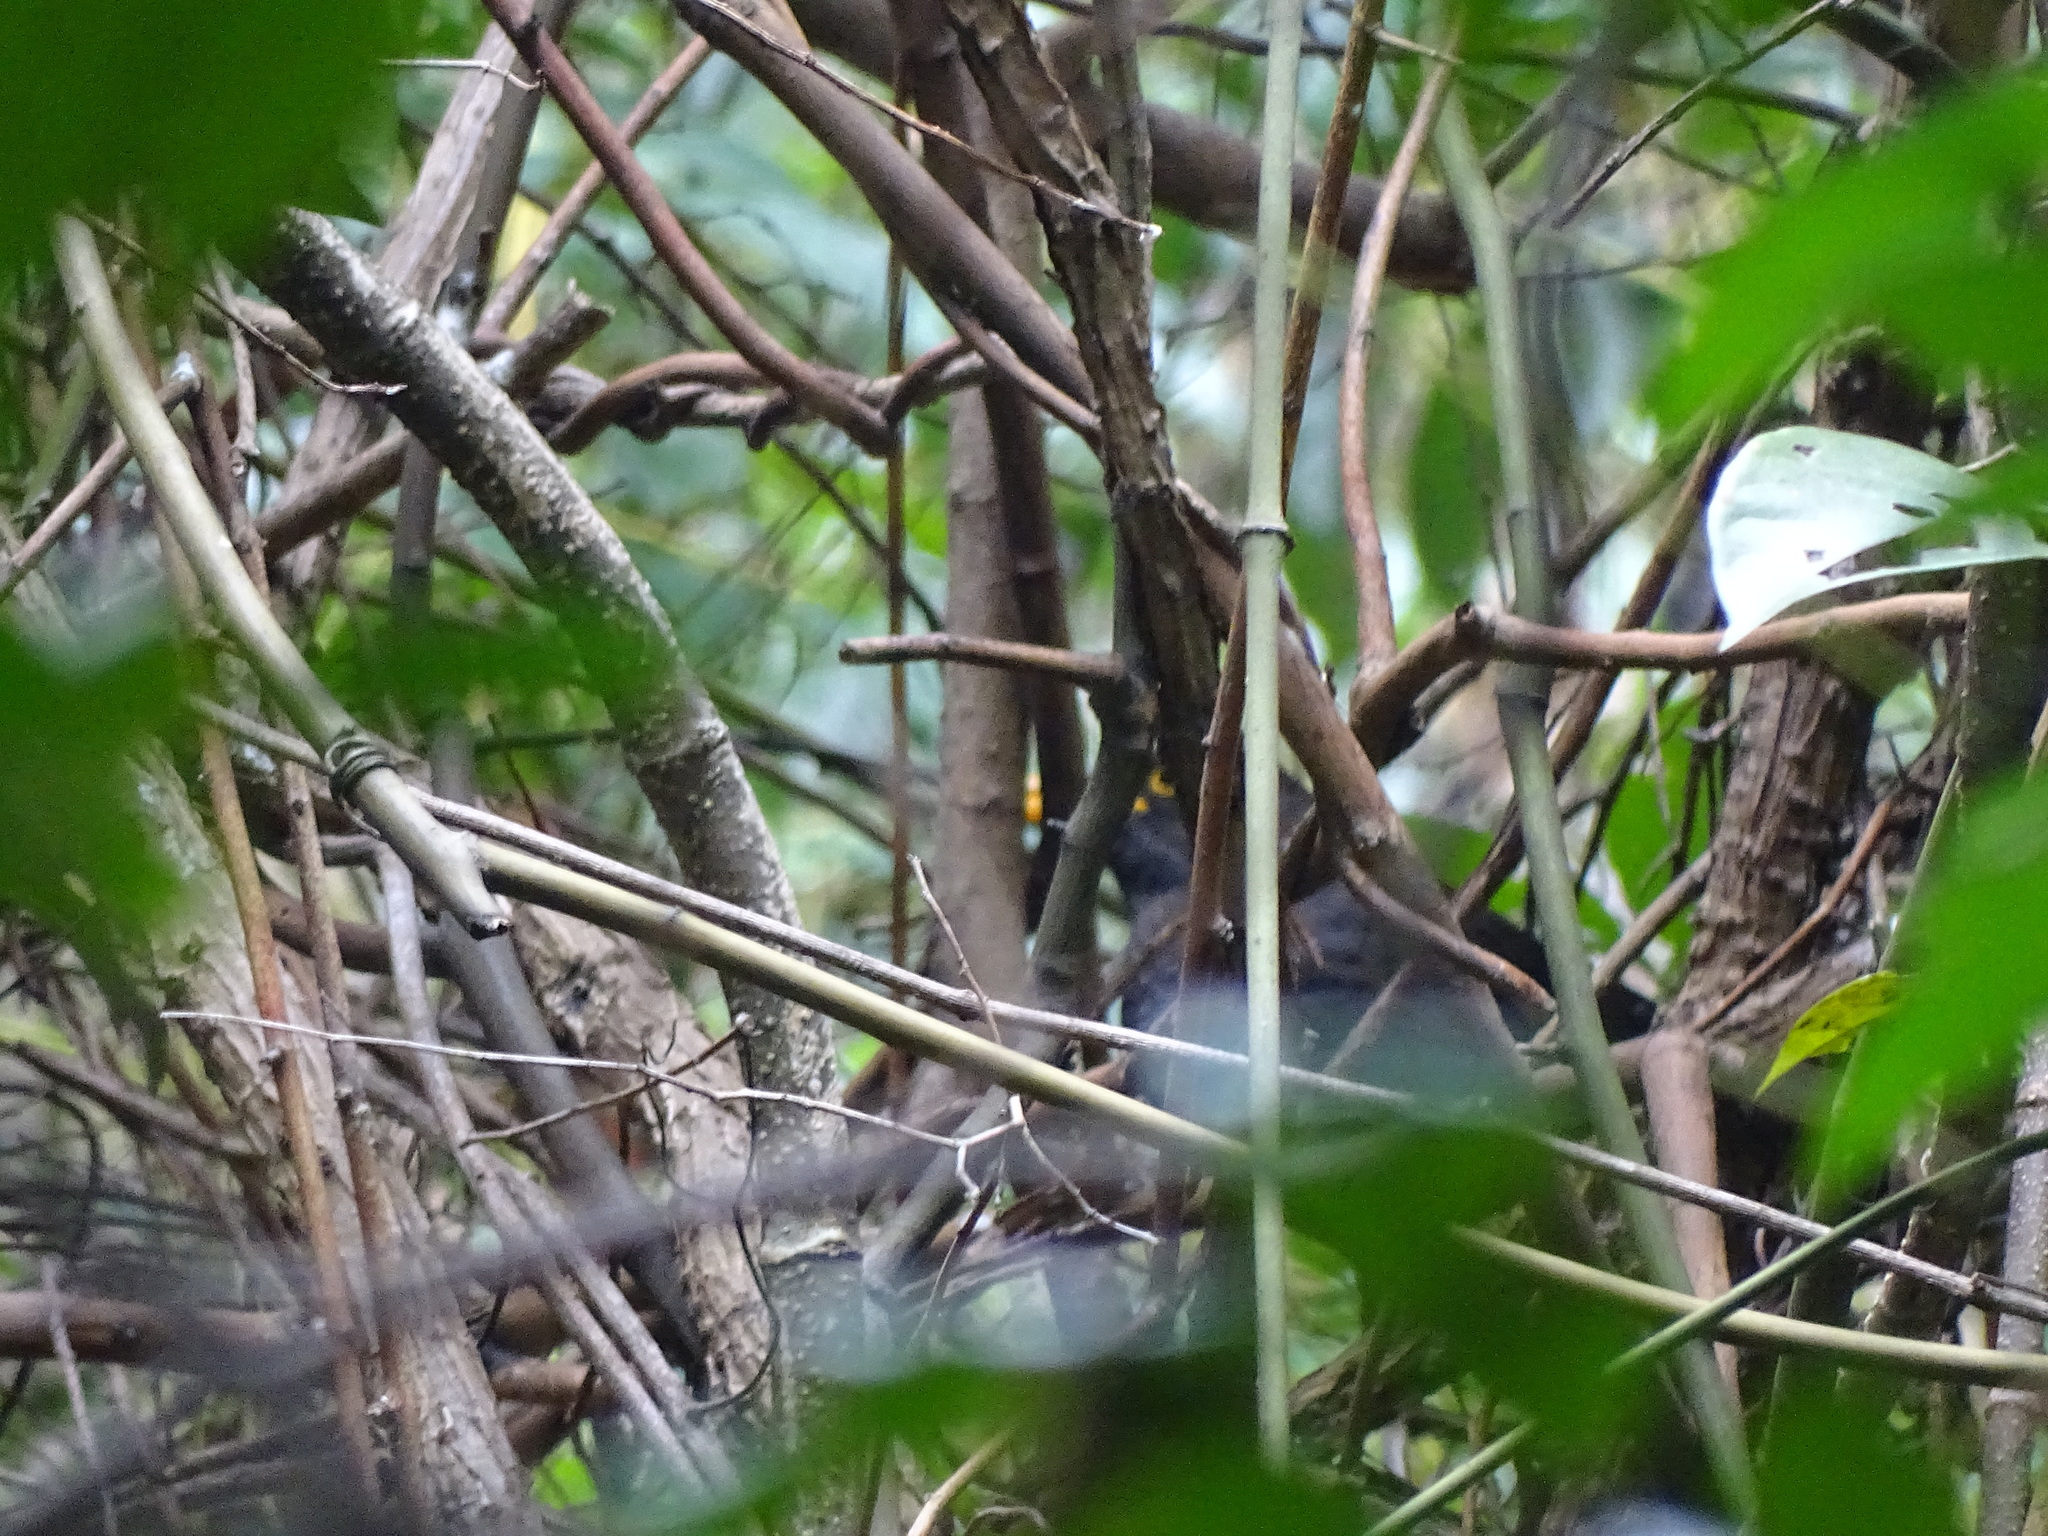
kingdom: Animalia
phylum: Chordata
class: Aves
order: Passeriformes
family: Turdidae
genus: Turdus
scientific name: Turdus mandarinus
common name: Chinese blackbird
